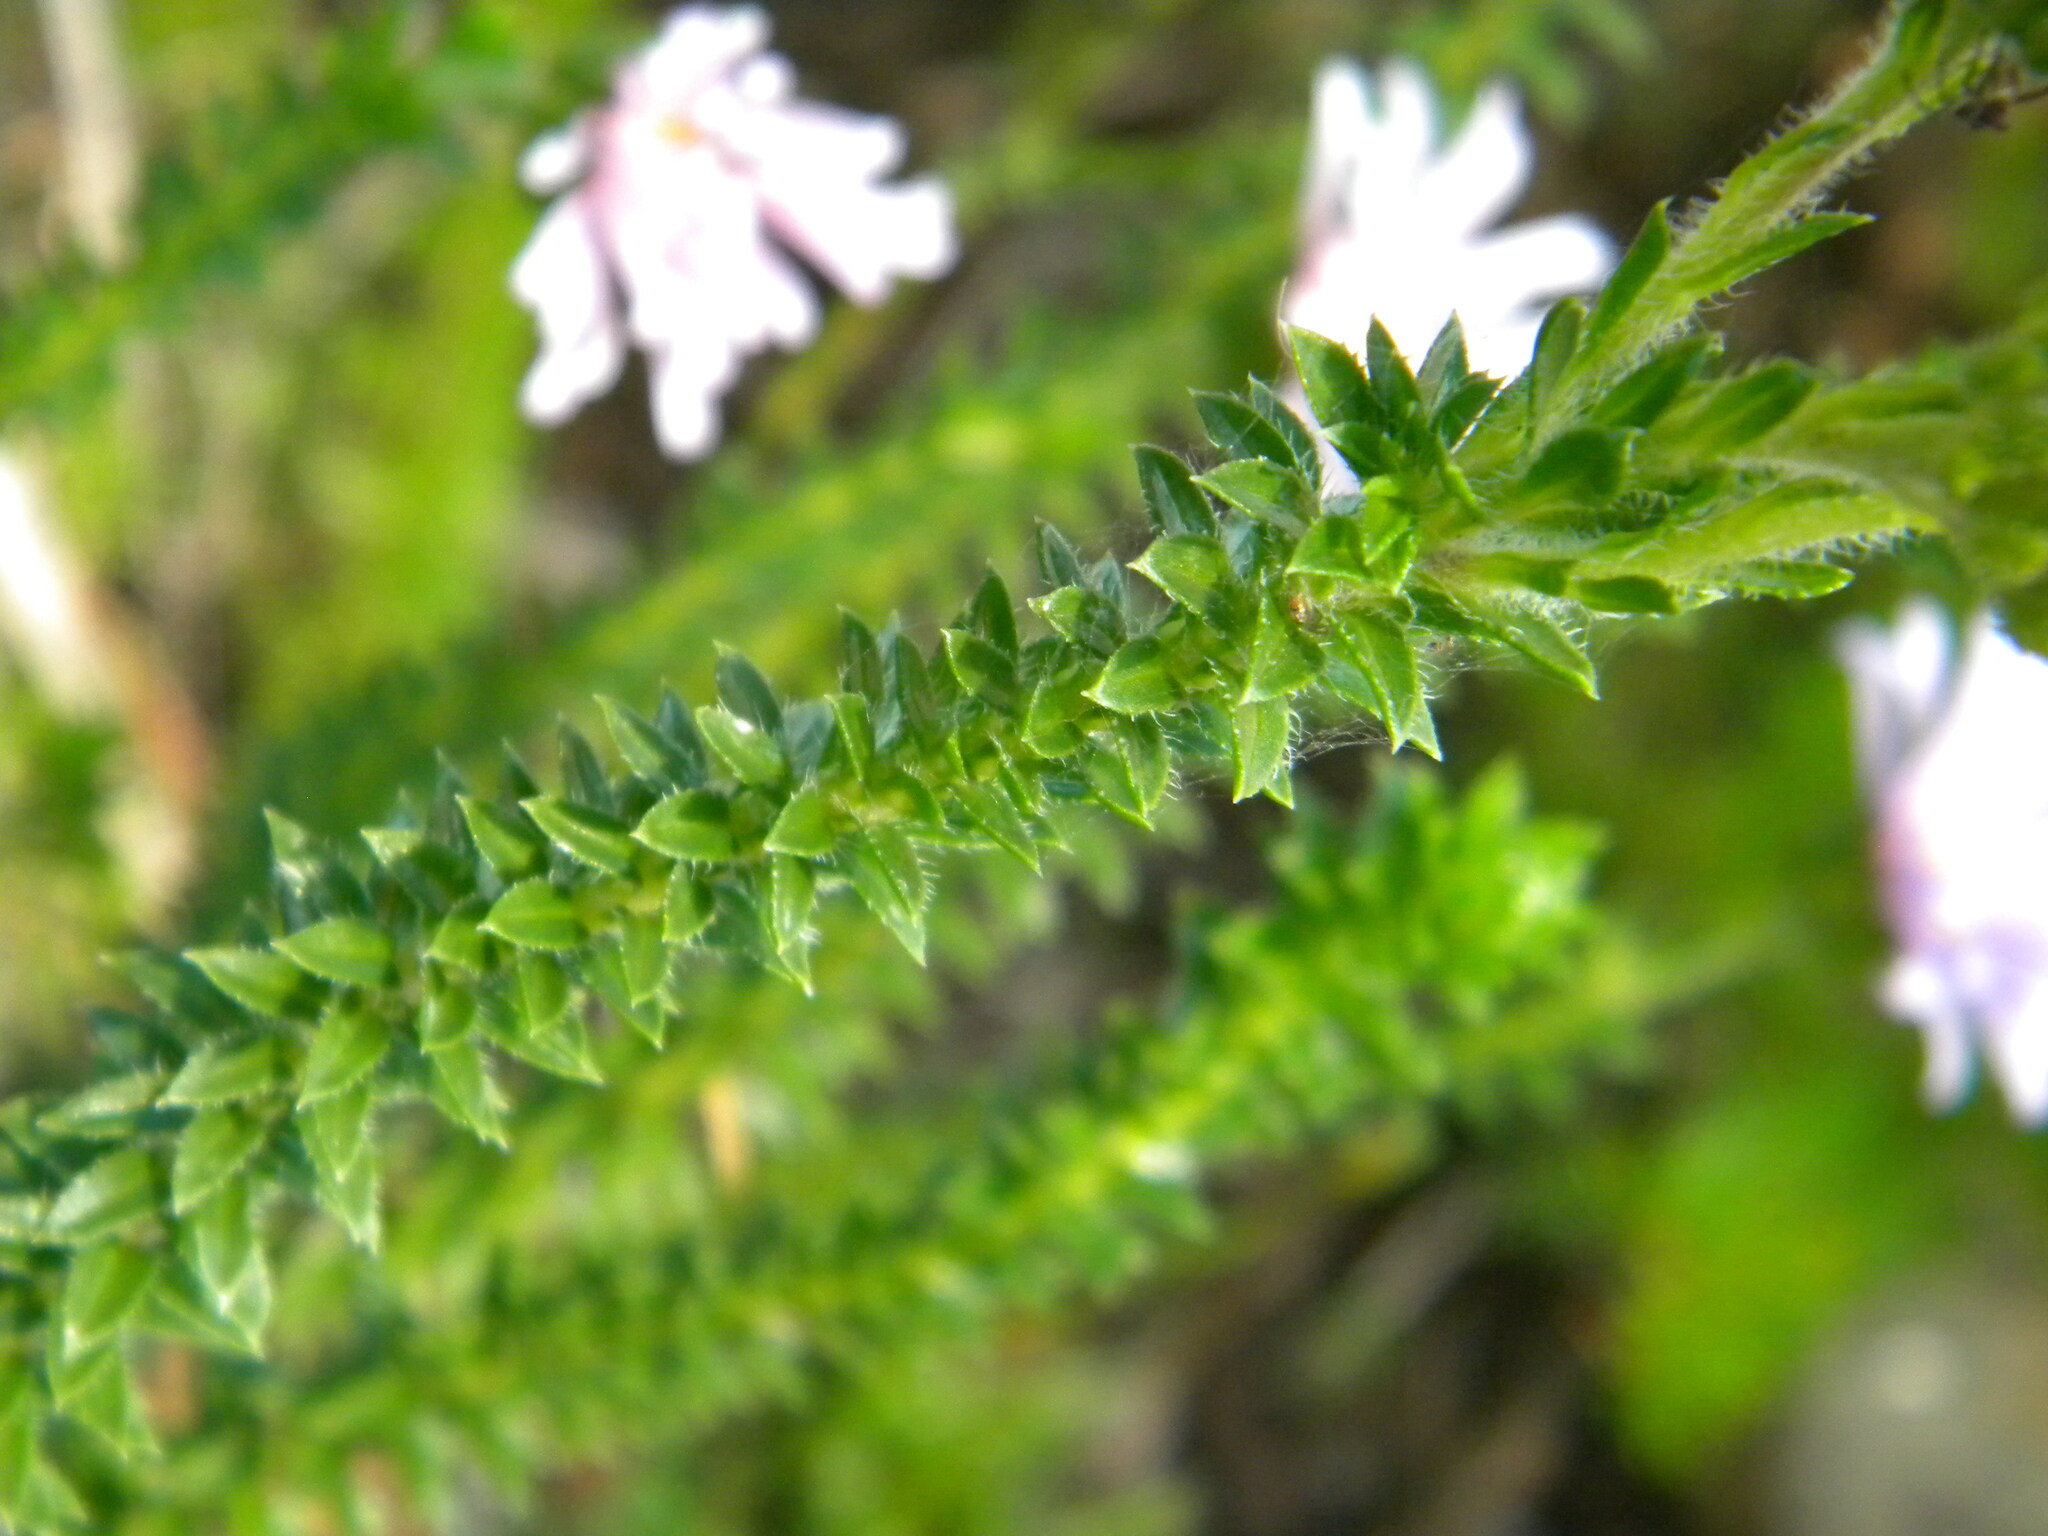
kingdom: Plantae
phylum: Tracheophyta
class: Magnoliopsida
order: Asterales
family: Asteraceae
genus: Felicia
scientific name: Felicia echinata
